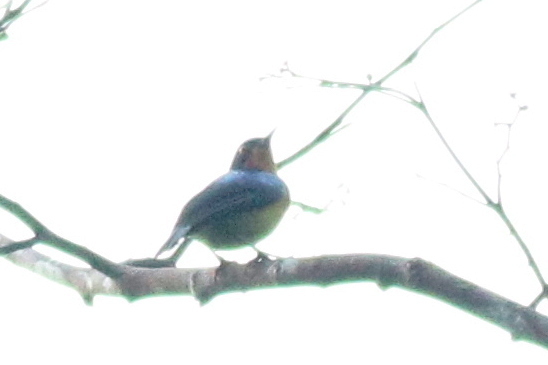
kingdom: Animalia
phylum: Chordata
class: Aves
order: Passeriformes
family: Nectariniidae
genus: Chalcoparia
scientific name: Chalcoparia singalensis
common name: Ruby-cheeked sunbird
